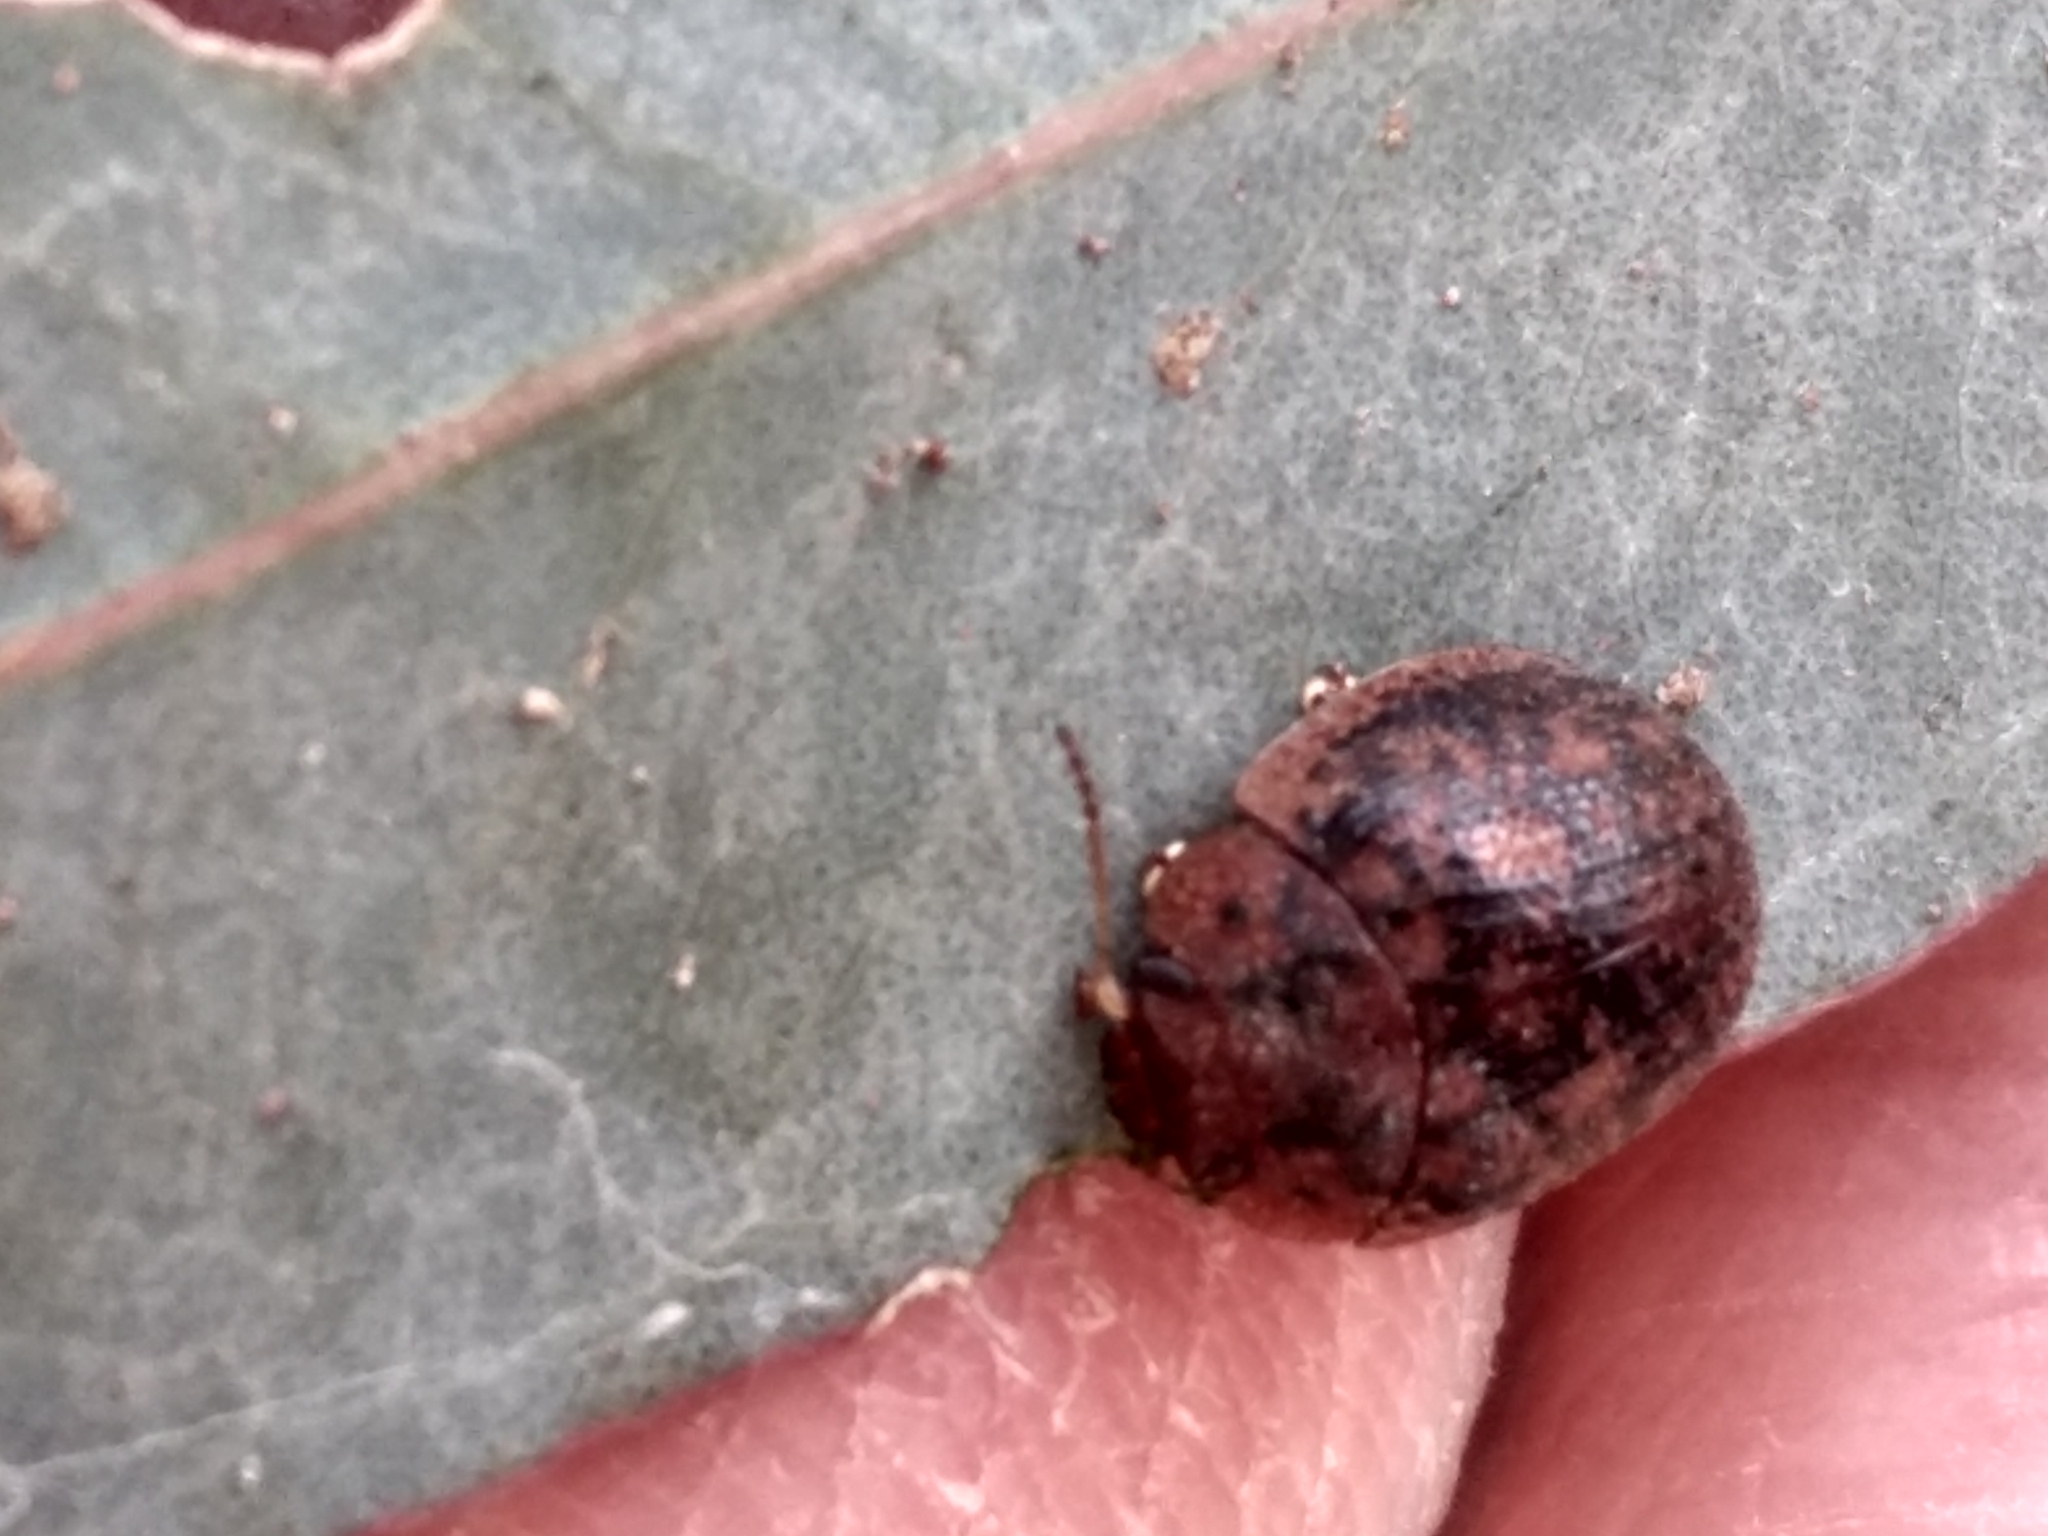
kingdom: Animalia
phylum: Arthropoda
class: Insecta
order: Coleoptera
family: Chrysomelidae
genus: Trachymela
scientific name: Trachymela sloanei
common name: Australian tortoise beetle
